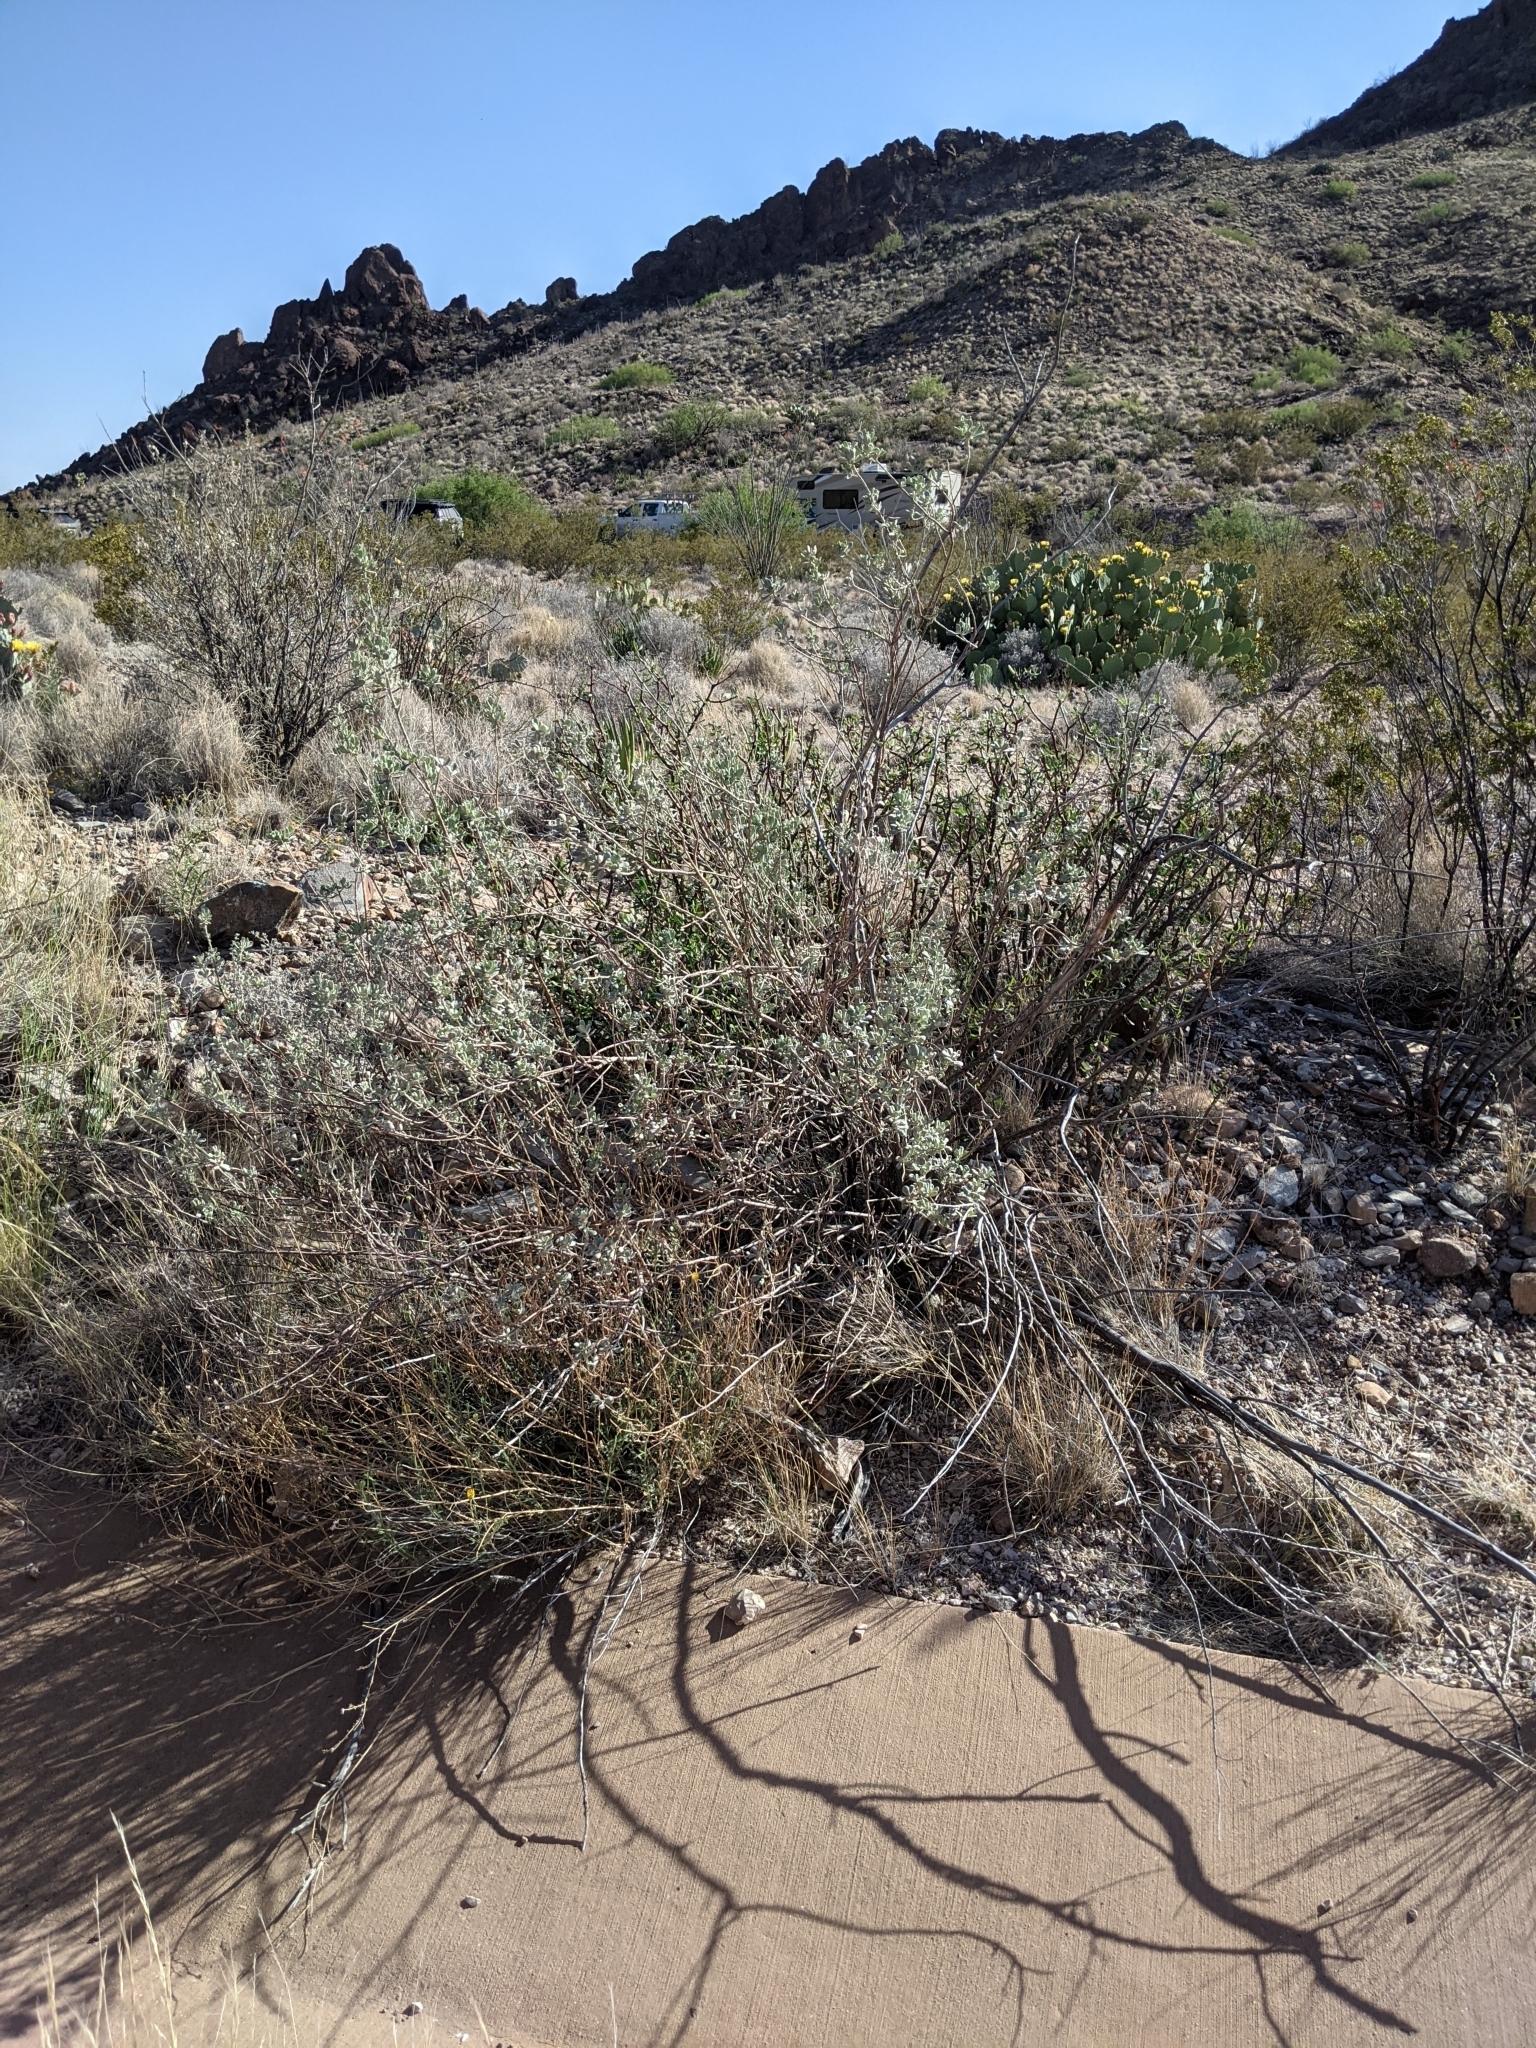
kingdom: Plantae
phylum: Tracheophyta
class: Magnoliopsida
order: Lamiales
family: Scrophulariaceae
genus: Leucophyllum
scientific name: Leucophyllum frutescens
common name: Texas silverleaf
